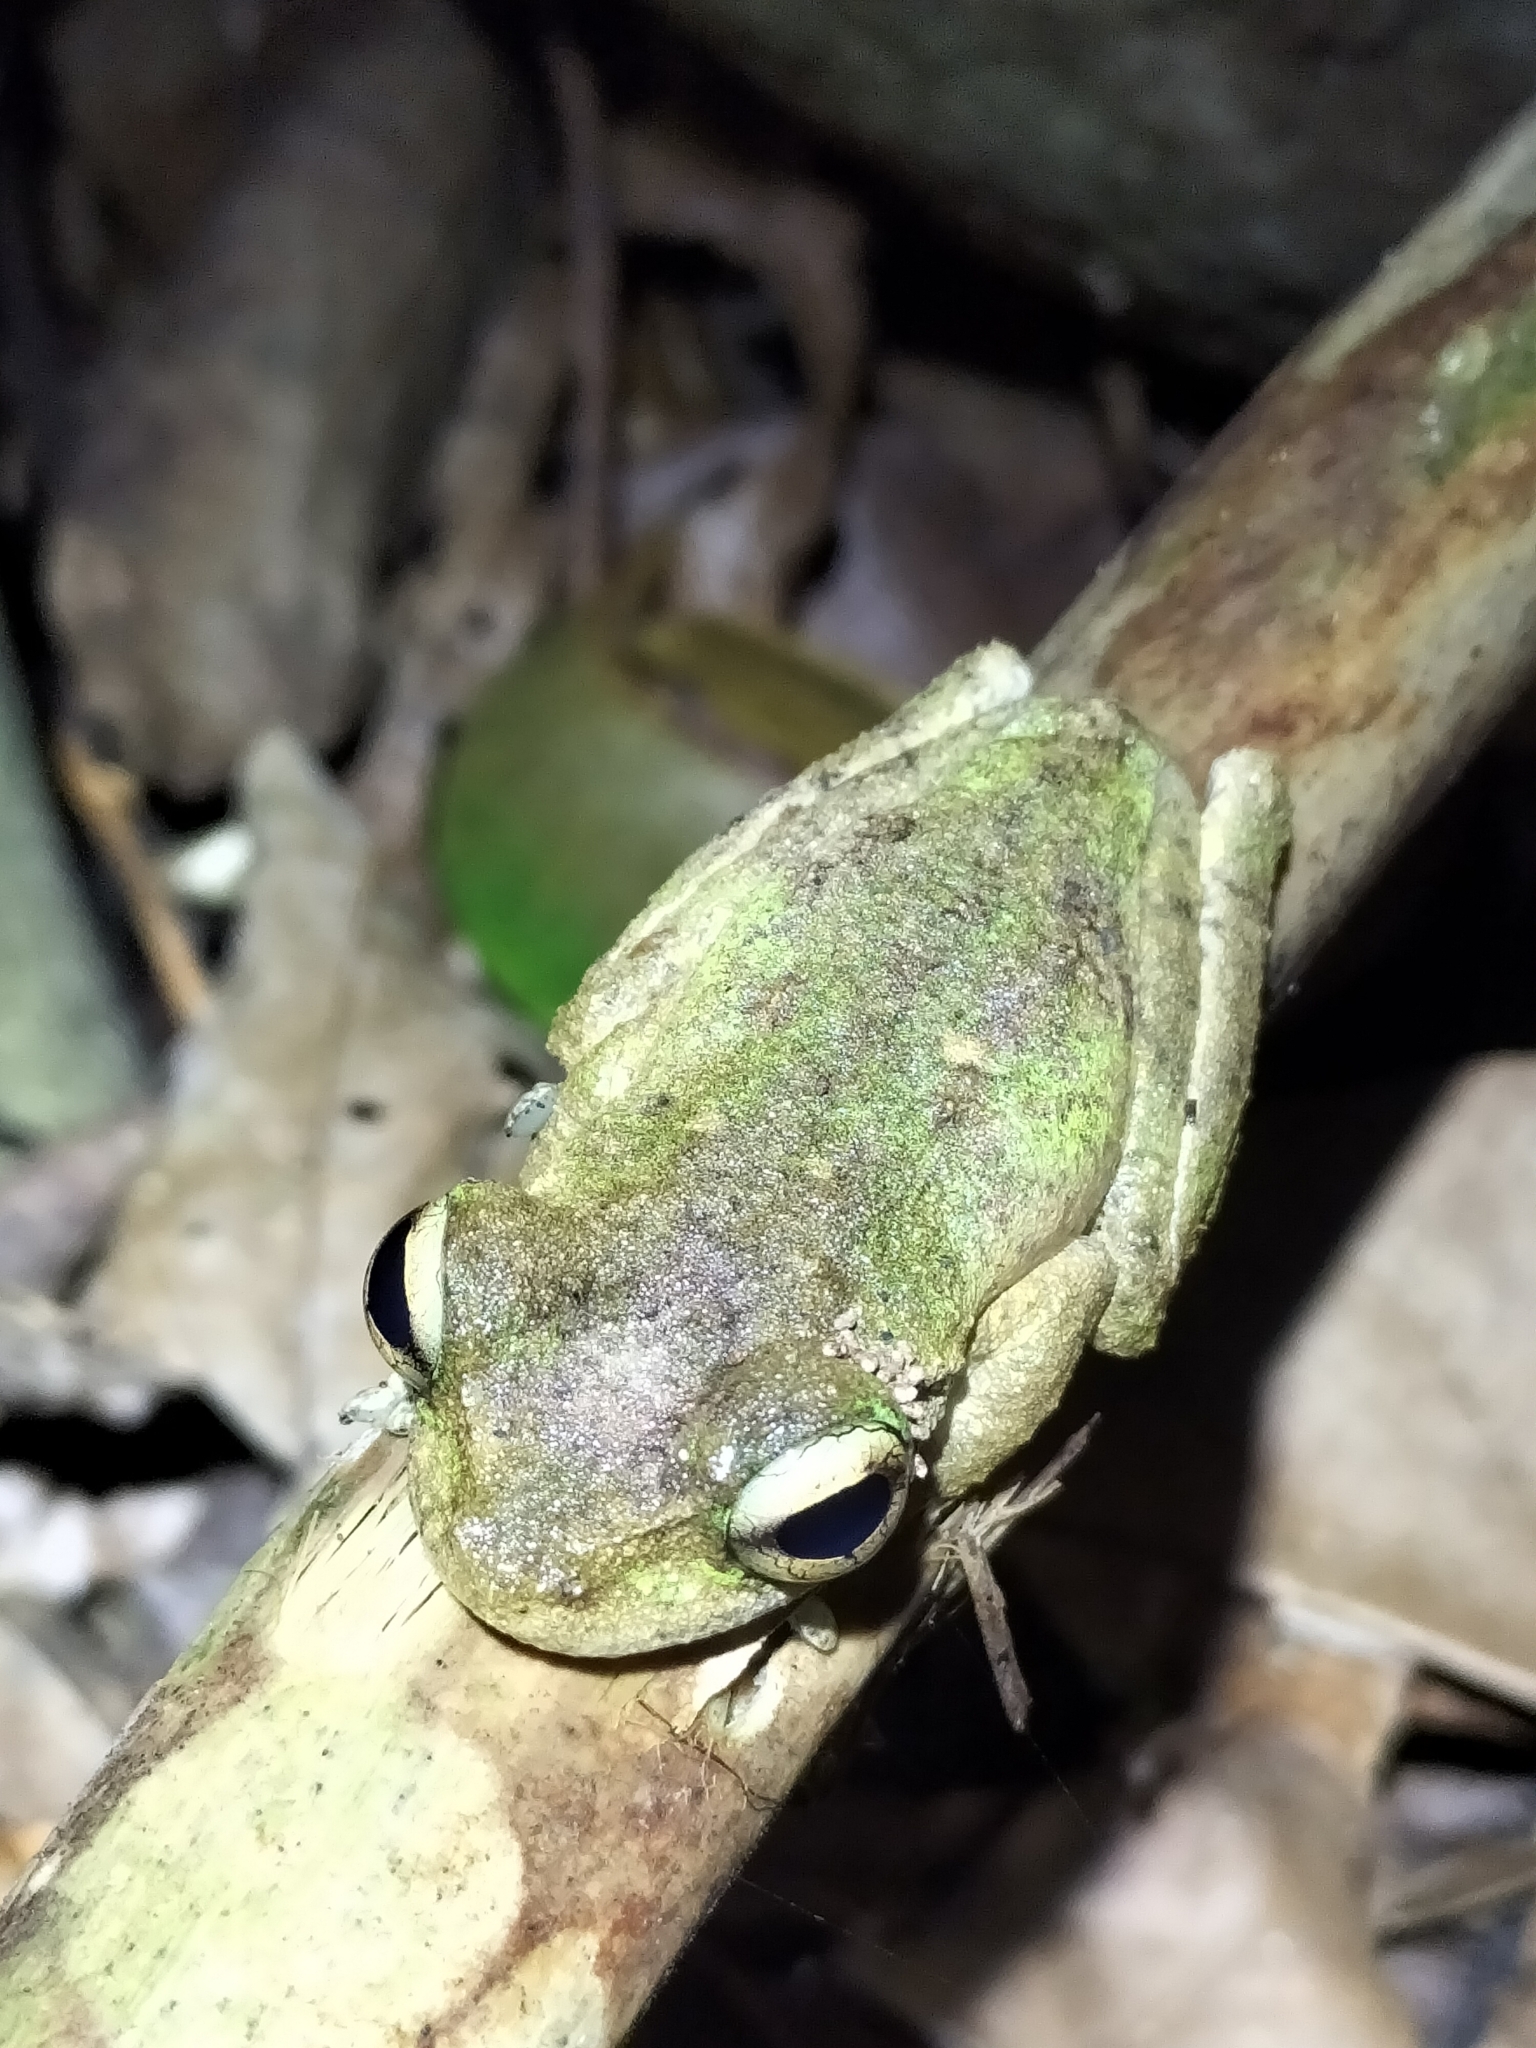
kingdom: Animalia
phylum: Chordata
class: Amphibia
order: Anura
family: Pelodryadidae
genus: Ranoidea
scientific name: Ranoidea serrata
